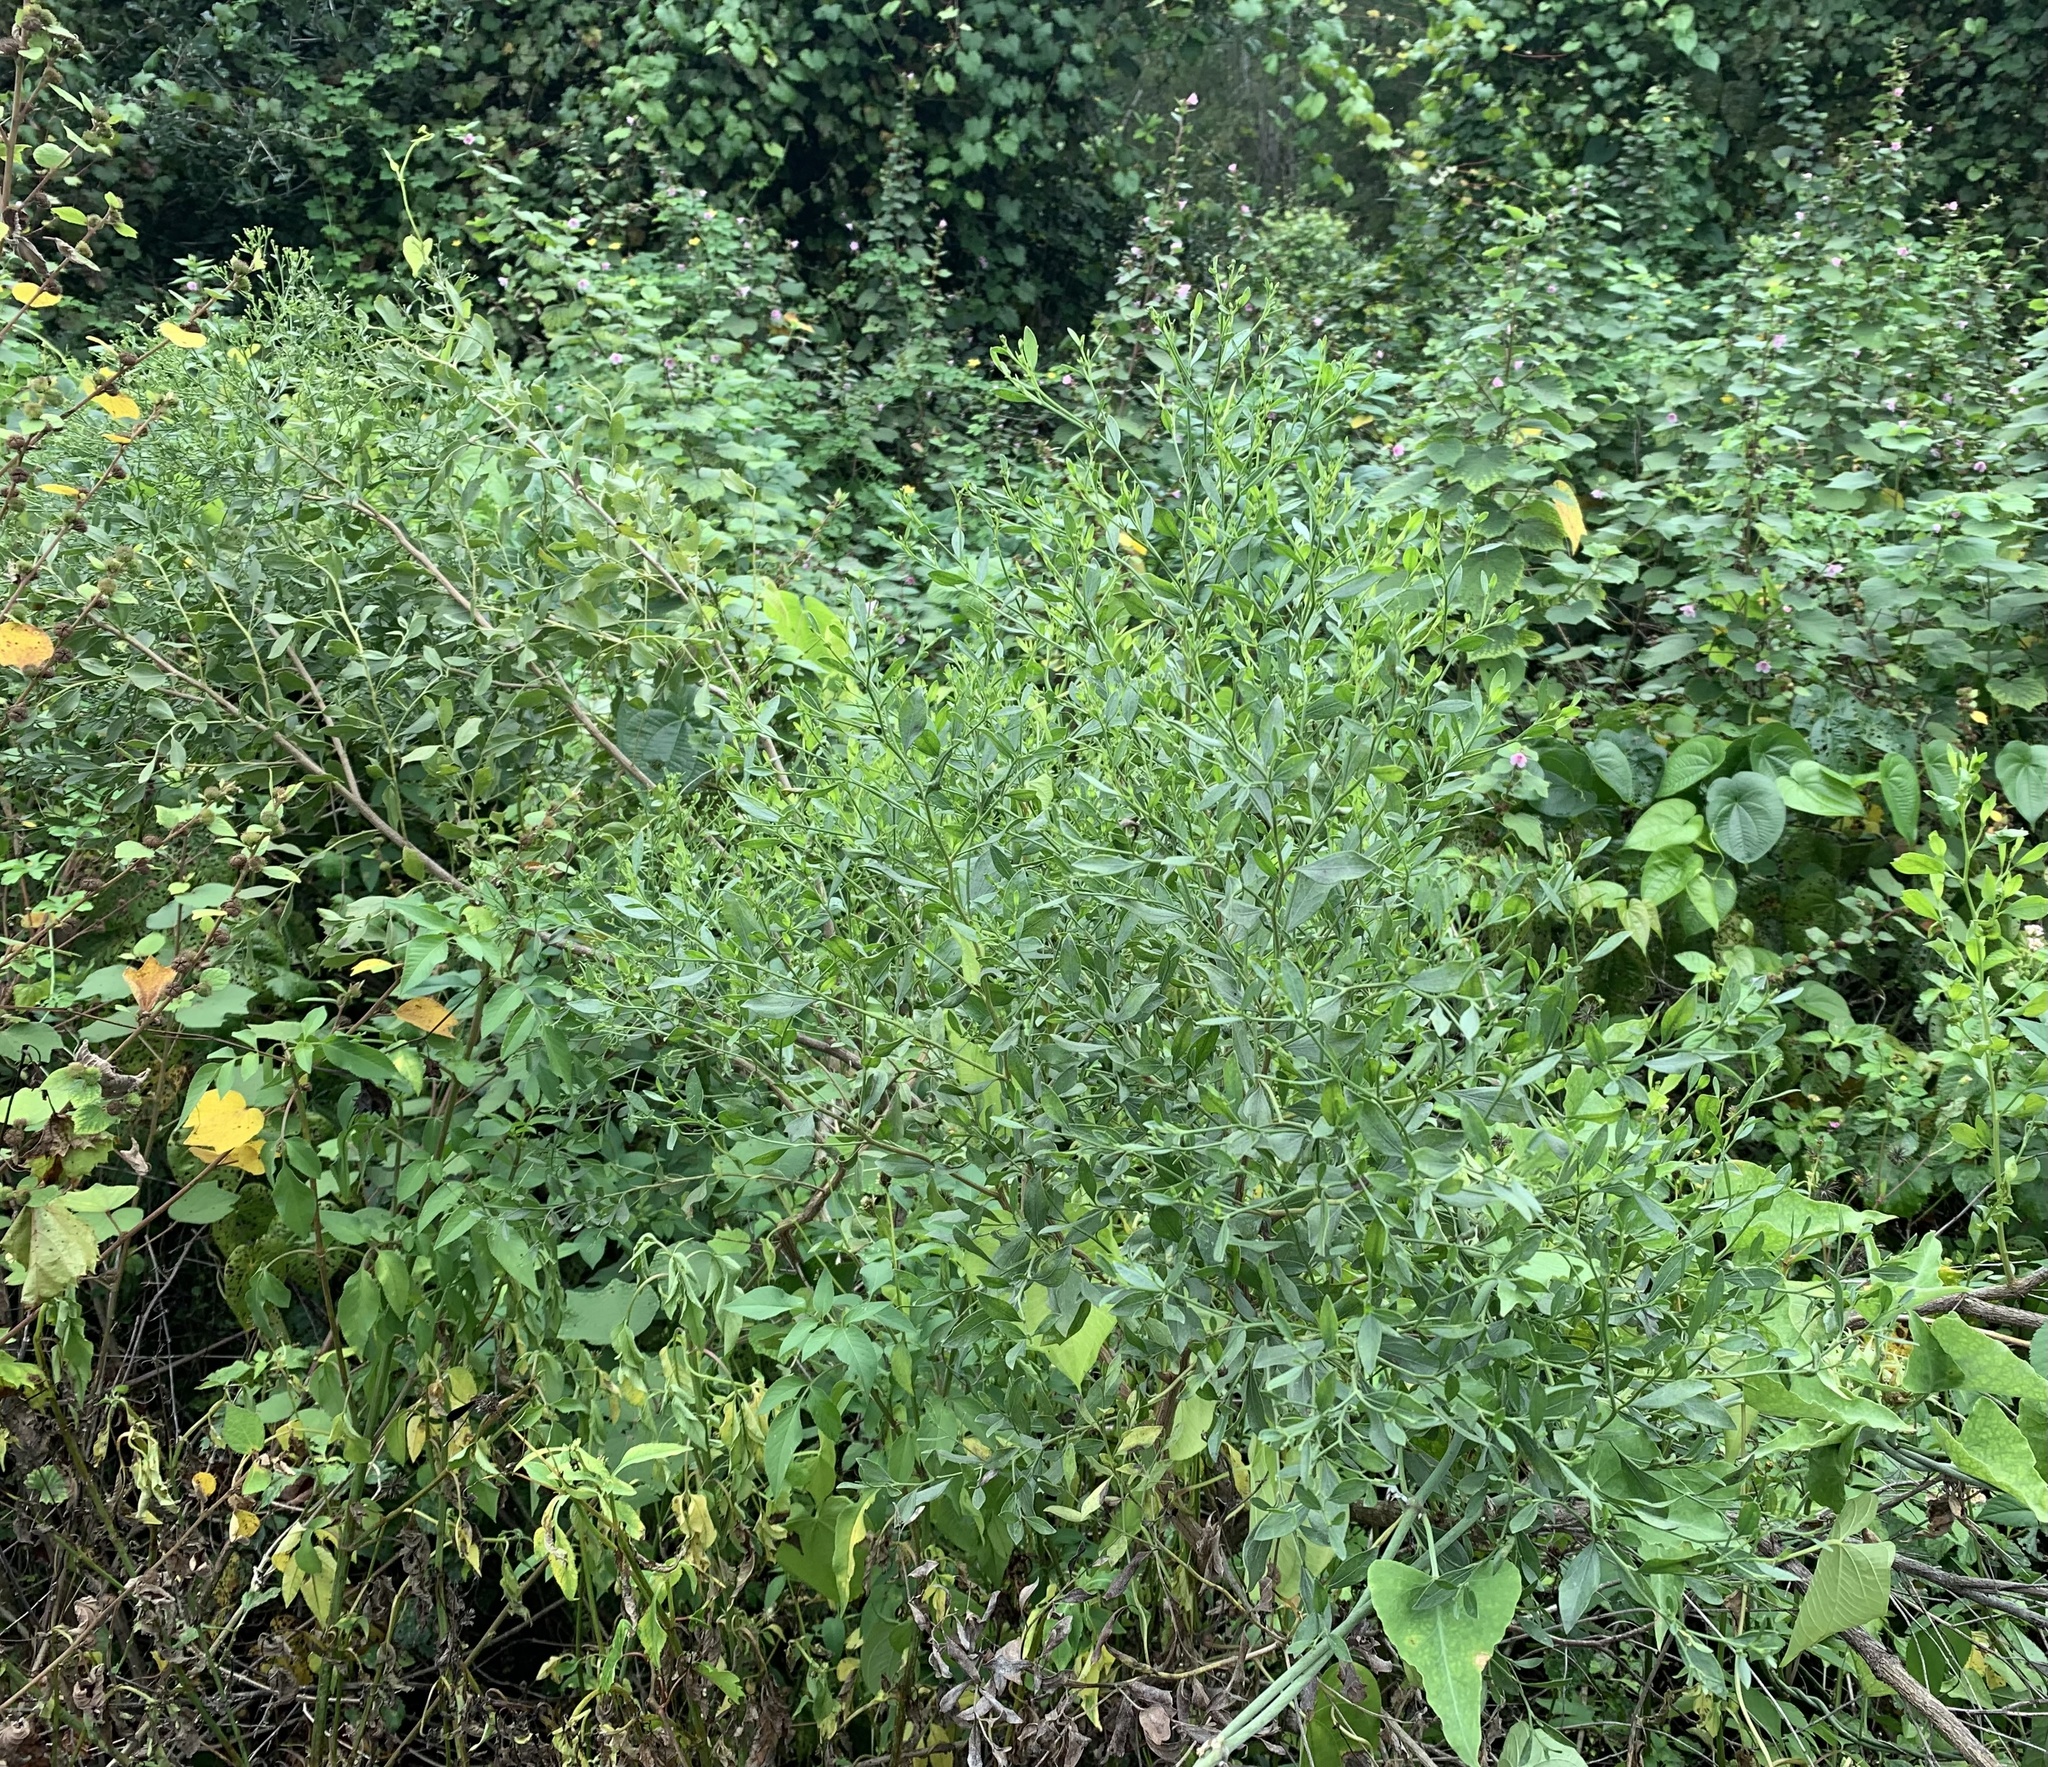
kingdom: Plantae
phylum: Tracheophyta
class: Magnoliopsida
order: Asterales
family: Asteraceae
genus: Baccharis
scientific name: Baccharis halimifolia
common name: Eastern baccharis
